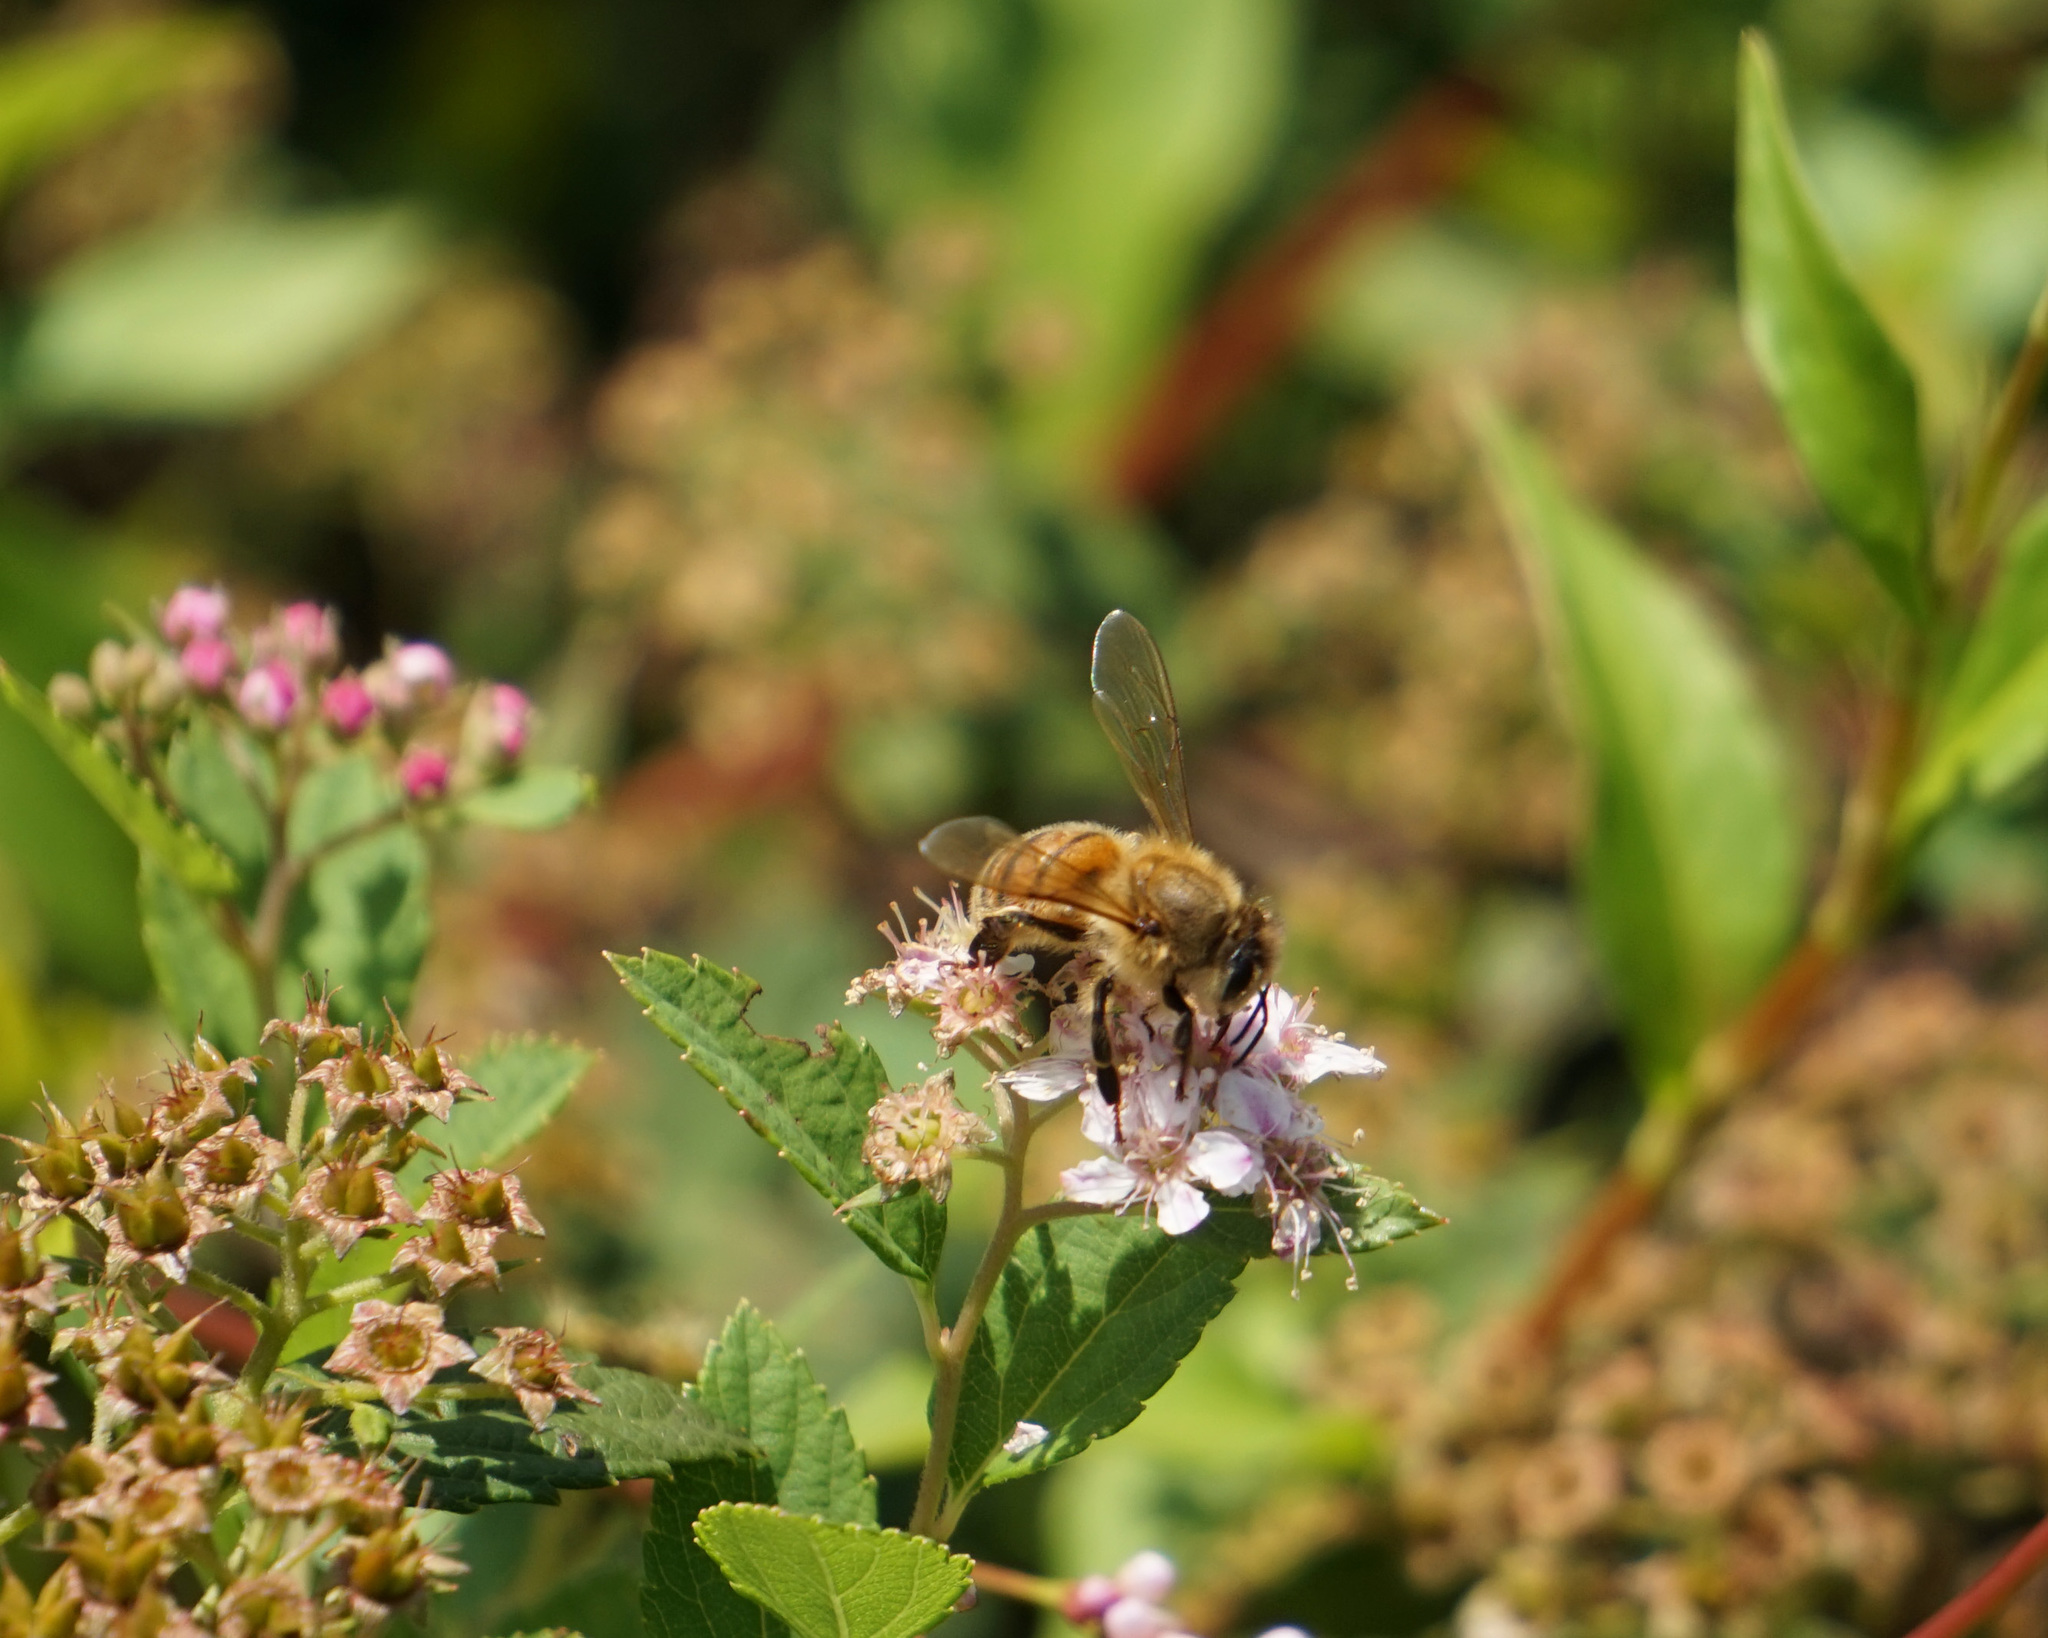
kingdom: Animalia
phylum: Arthropoda
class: Insecta
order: Hymenoptera
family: Apidae
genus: Apis
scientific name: Apis mellifera
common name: Honey bee
